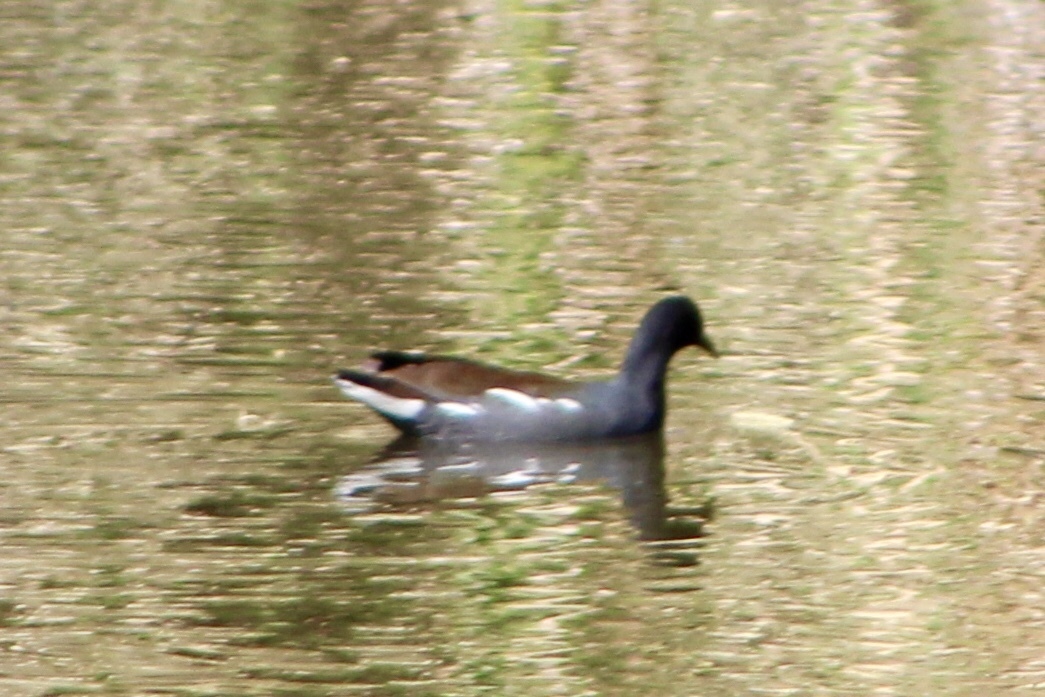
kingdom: Animalia
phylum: Chordata
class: Aves
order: Gruiformes
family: Rallidae
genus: Gallinula
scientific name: Gallinula chloropus
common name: Common moorhen
